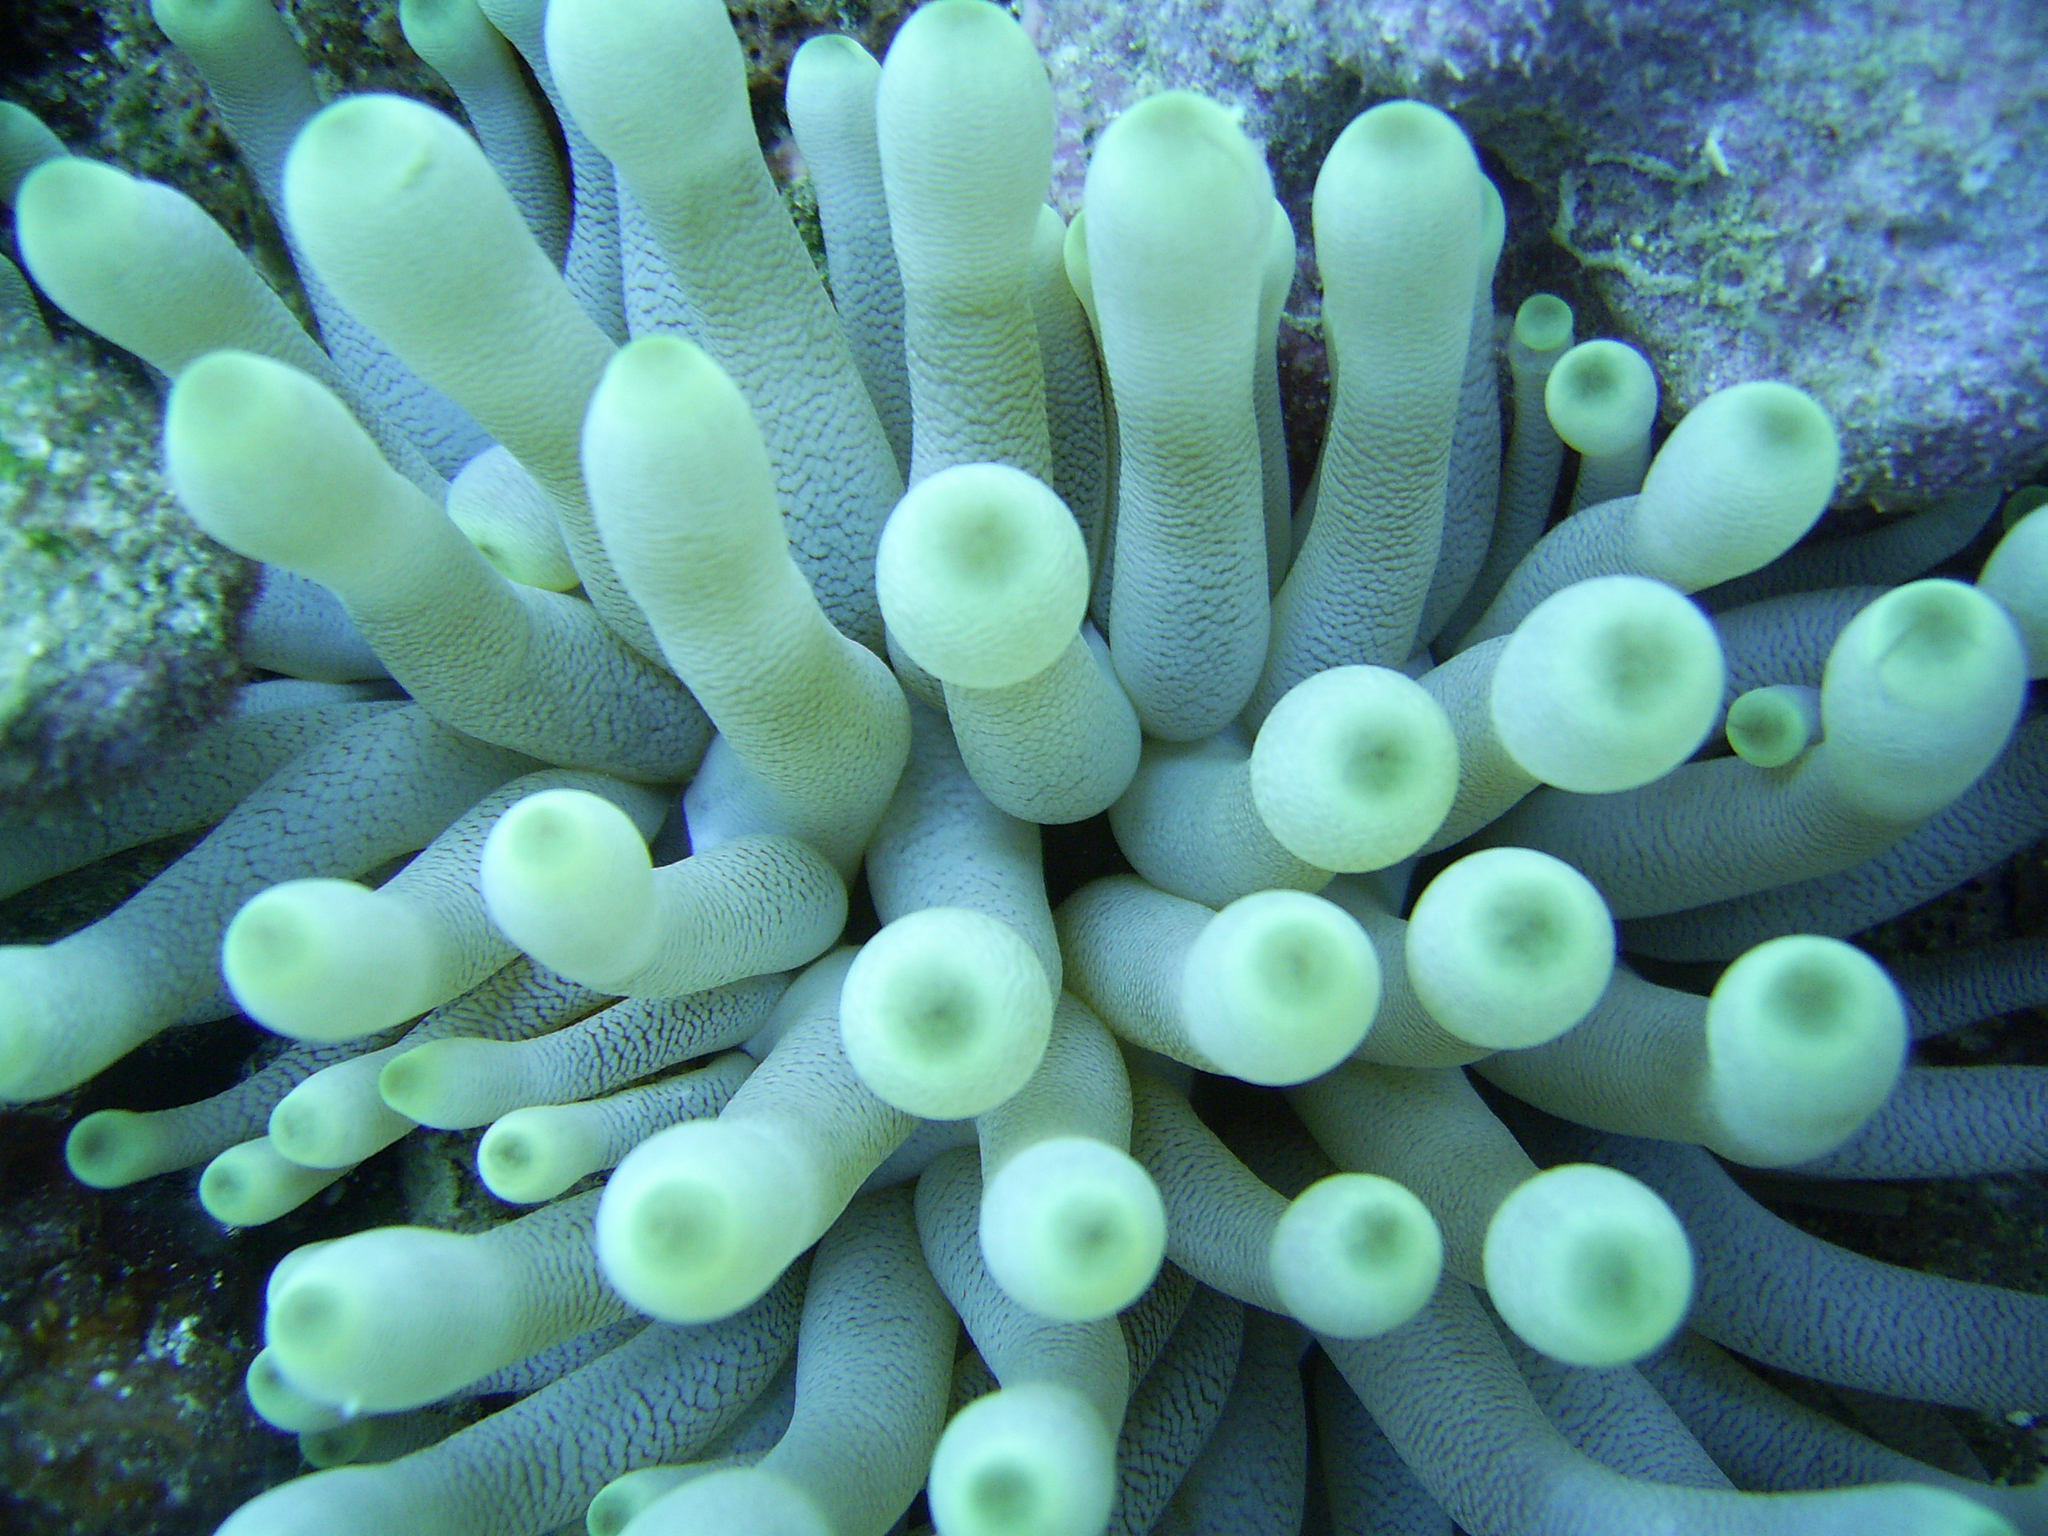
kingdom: Animalia
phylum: Cnidaria
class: Anthozoa
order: Actiniaria
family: Actiniidae
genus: Condylactis
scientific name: Condylactis gigantea
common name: Giant caribbean anemone
